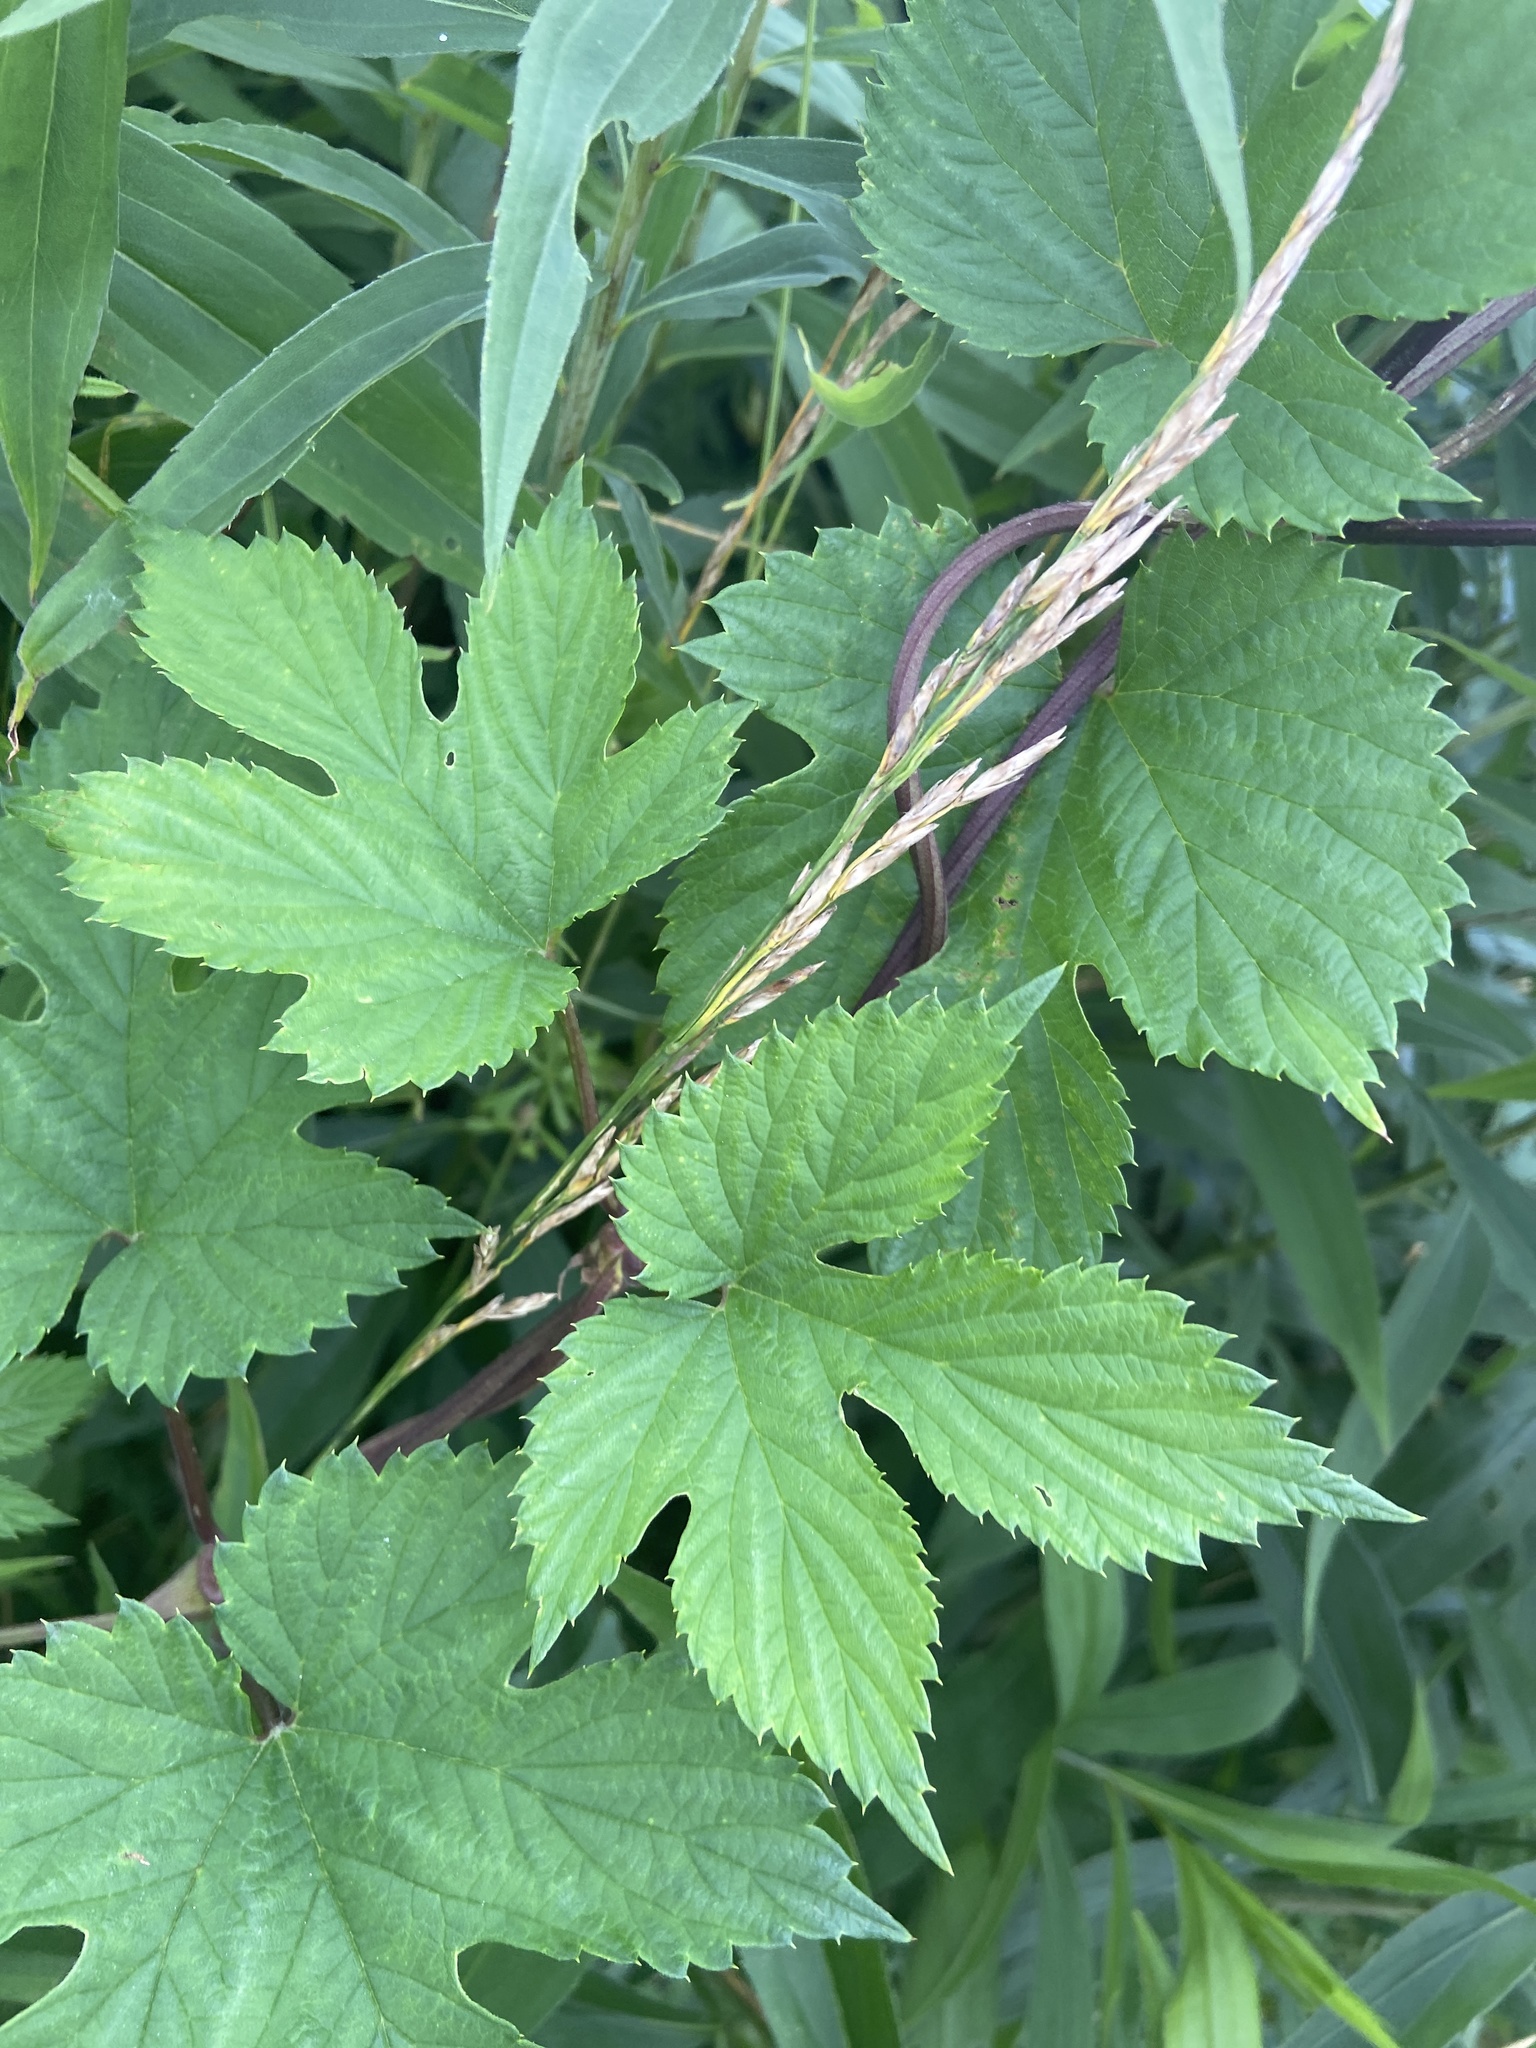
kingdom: Plantae
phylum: Tracheophyta
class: Magnoliopsida
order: Rosales
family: Cannabaceae
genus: Humulus
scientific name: Humulus lupulus
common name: Hop
